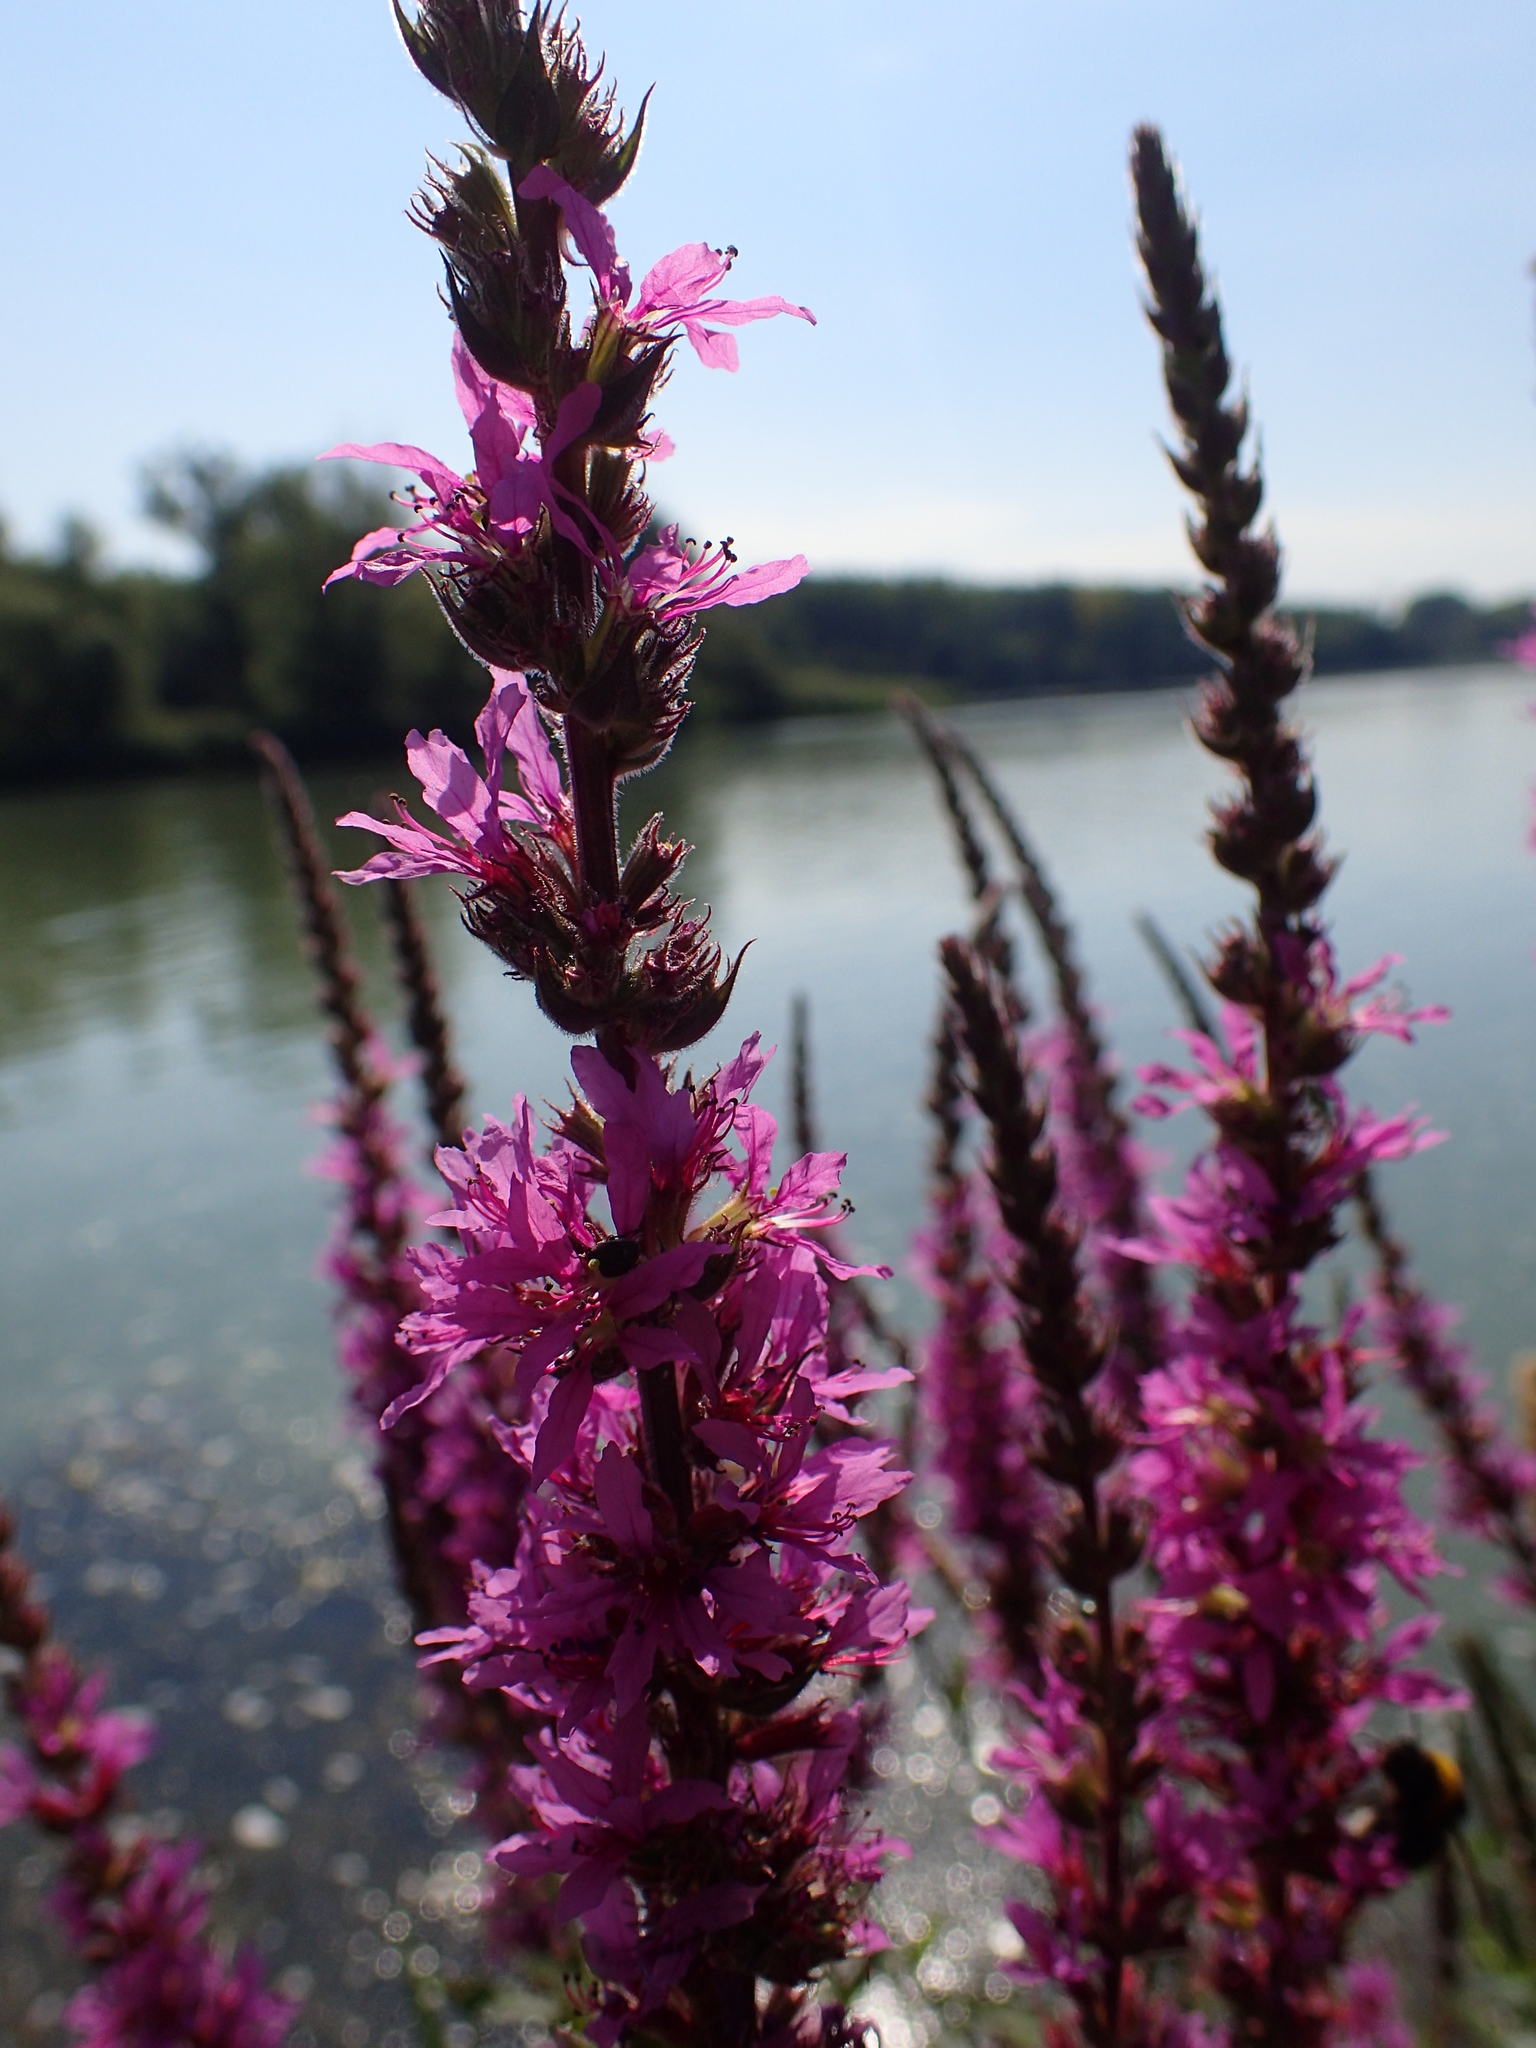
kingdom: Plantae
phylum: Tracheophyta
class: Magnoliopsida
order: Myrtales
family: Lythraceae
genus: Lythrum
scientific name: Lythrum salicaria
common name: Purple loosestrife
